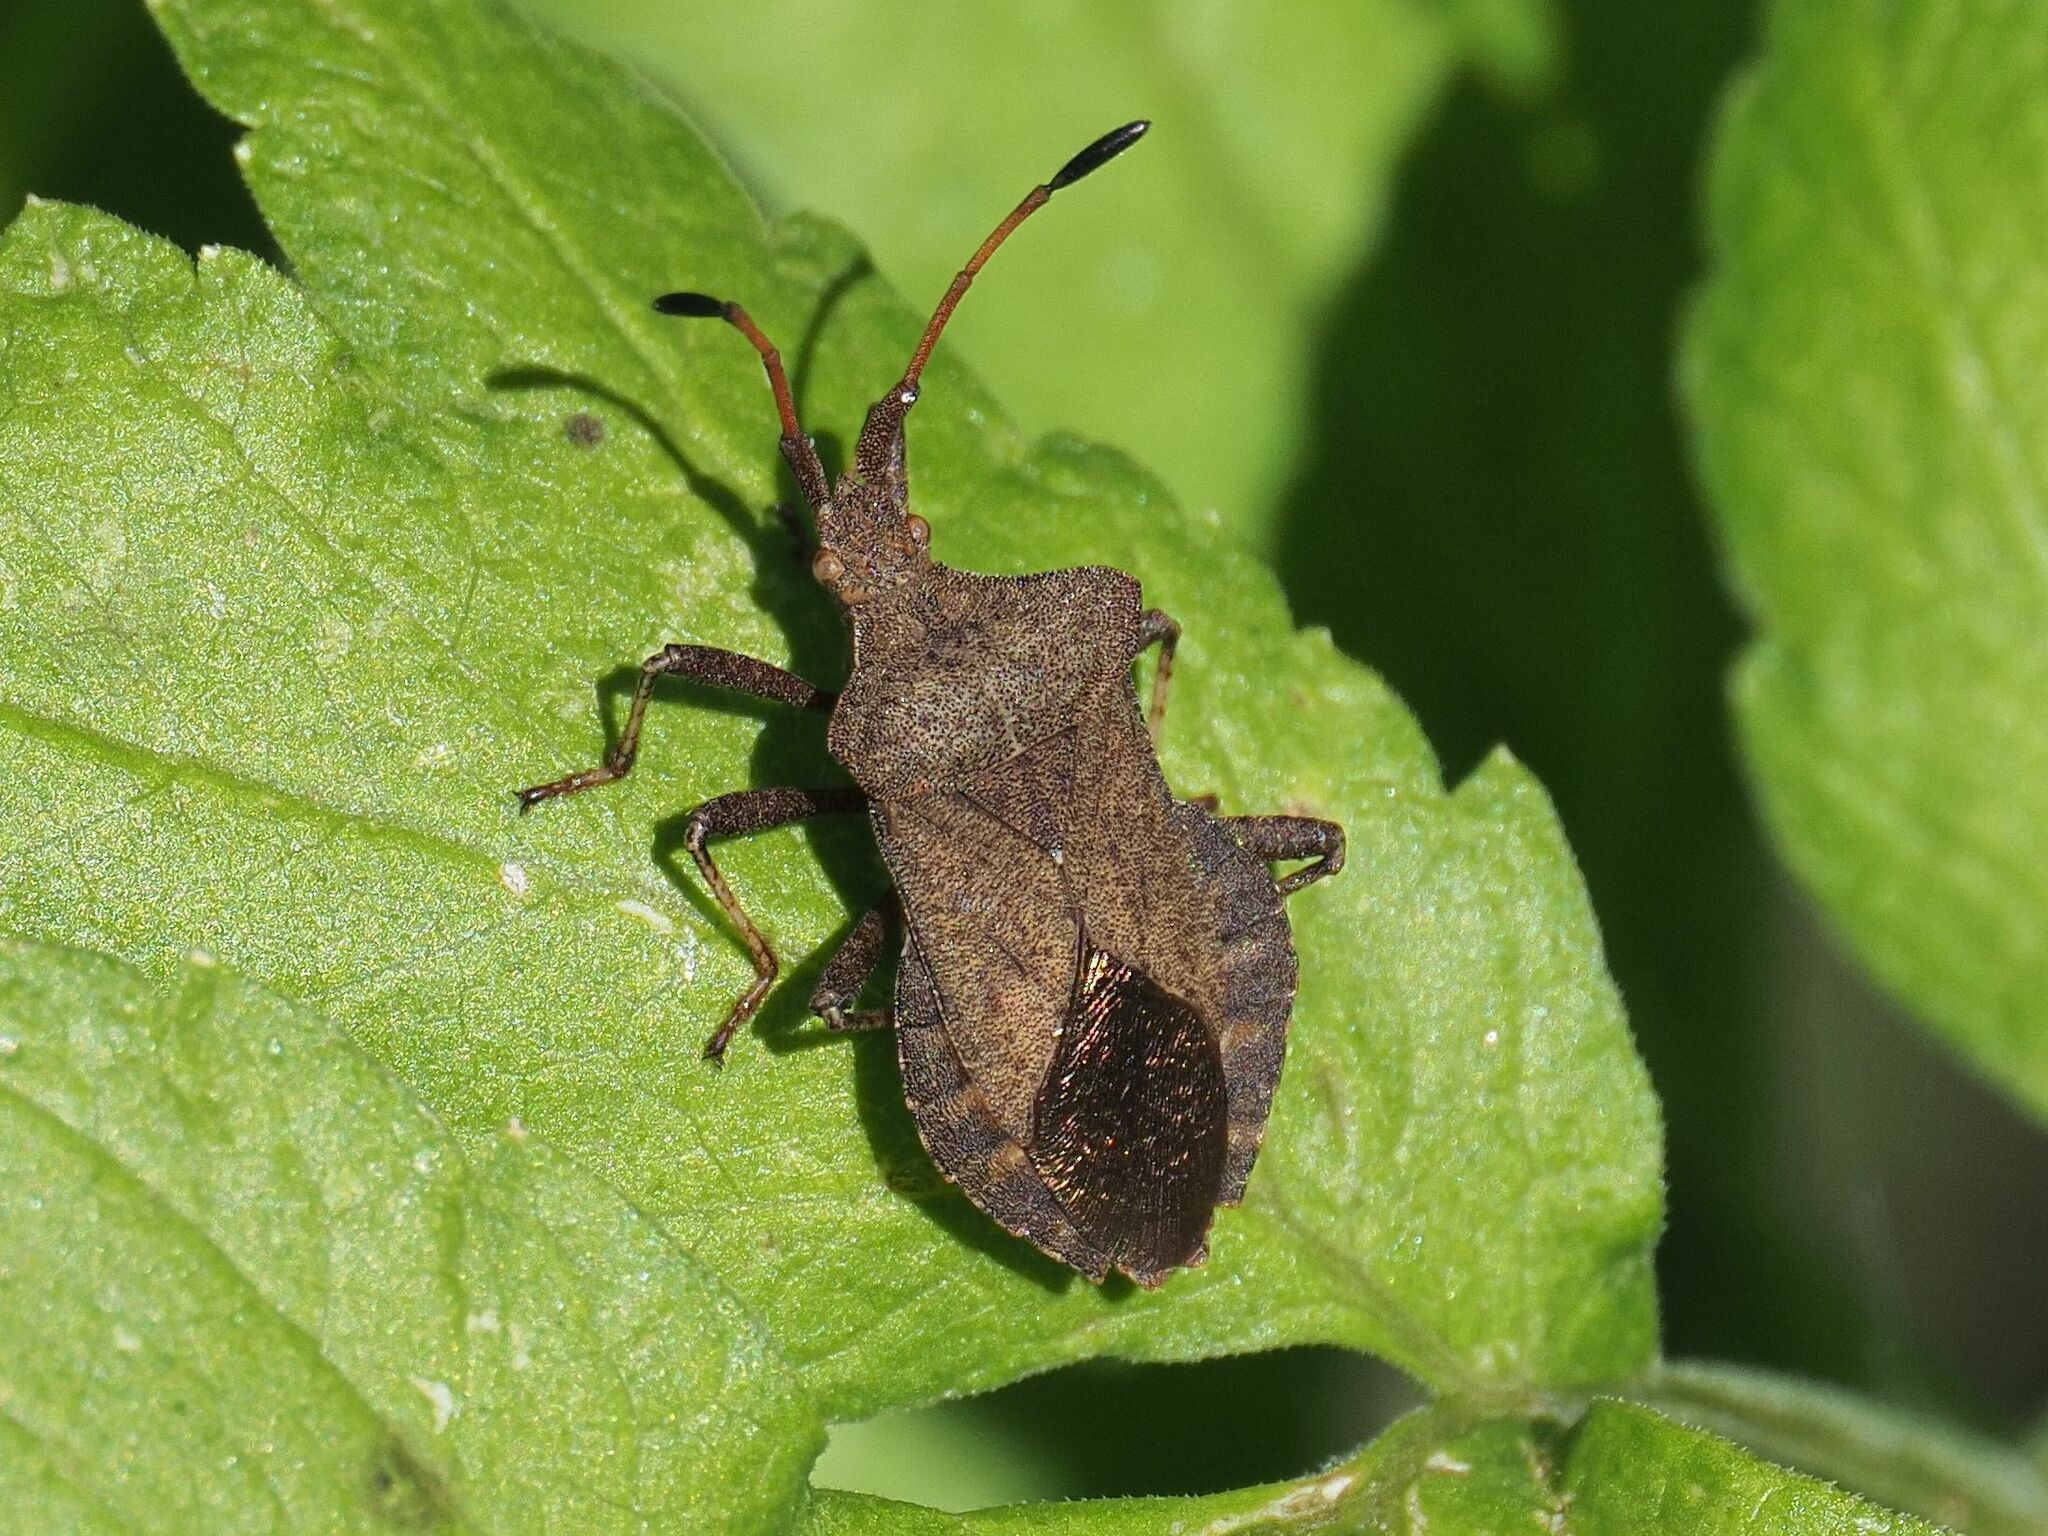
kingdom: Animalia
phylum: Arthropoda
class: Insecta
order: Hemiptera
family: Coreidae
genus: Coreus
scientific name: Coreus marginatus
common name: Dock bug
